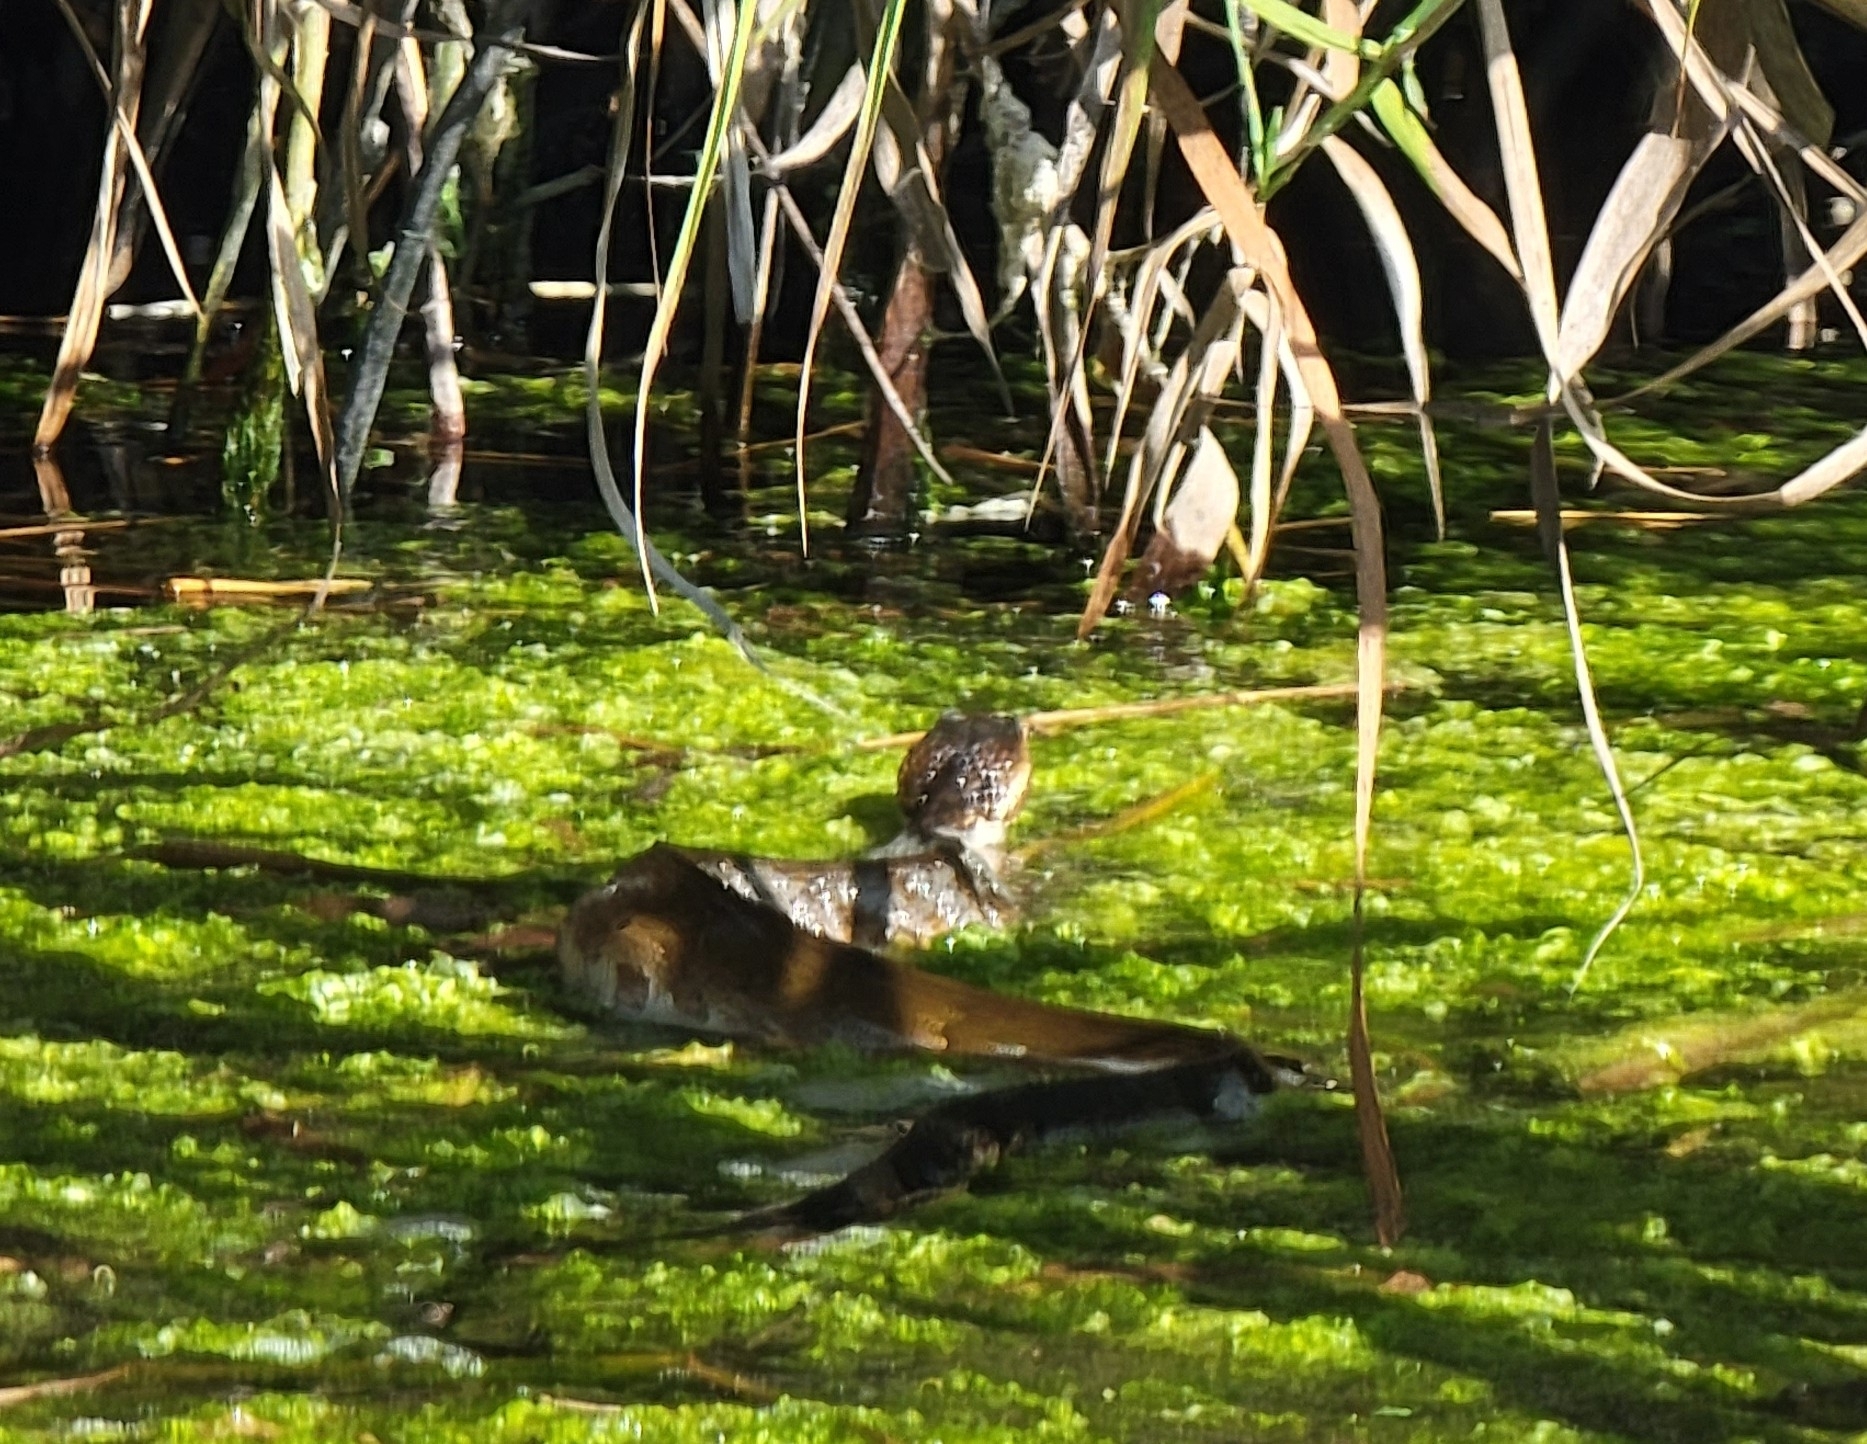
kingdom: Animalia
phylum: Chordata
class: Squamata
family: Viperidae
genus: Agkistrodon
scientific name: Agkistrodon conanti
